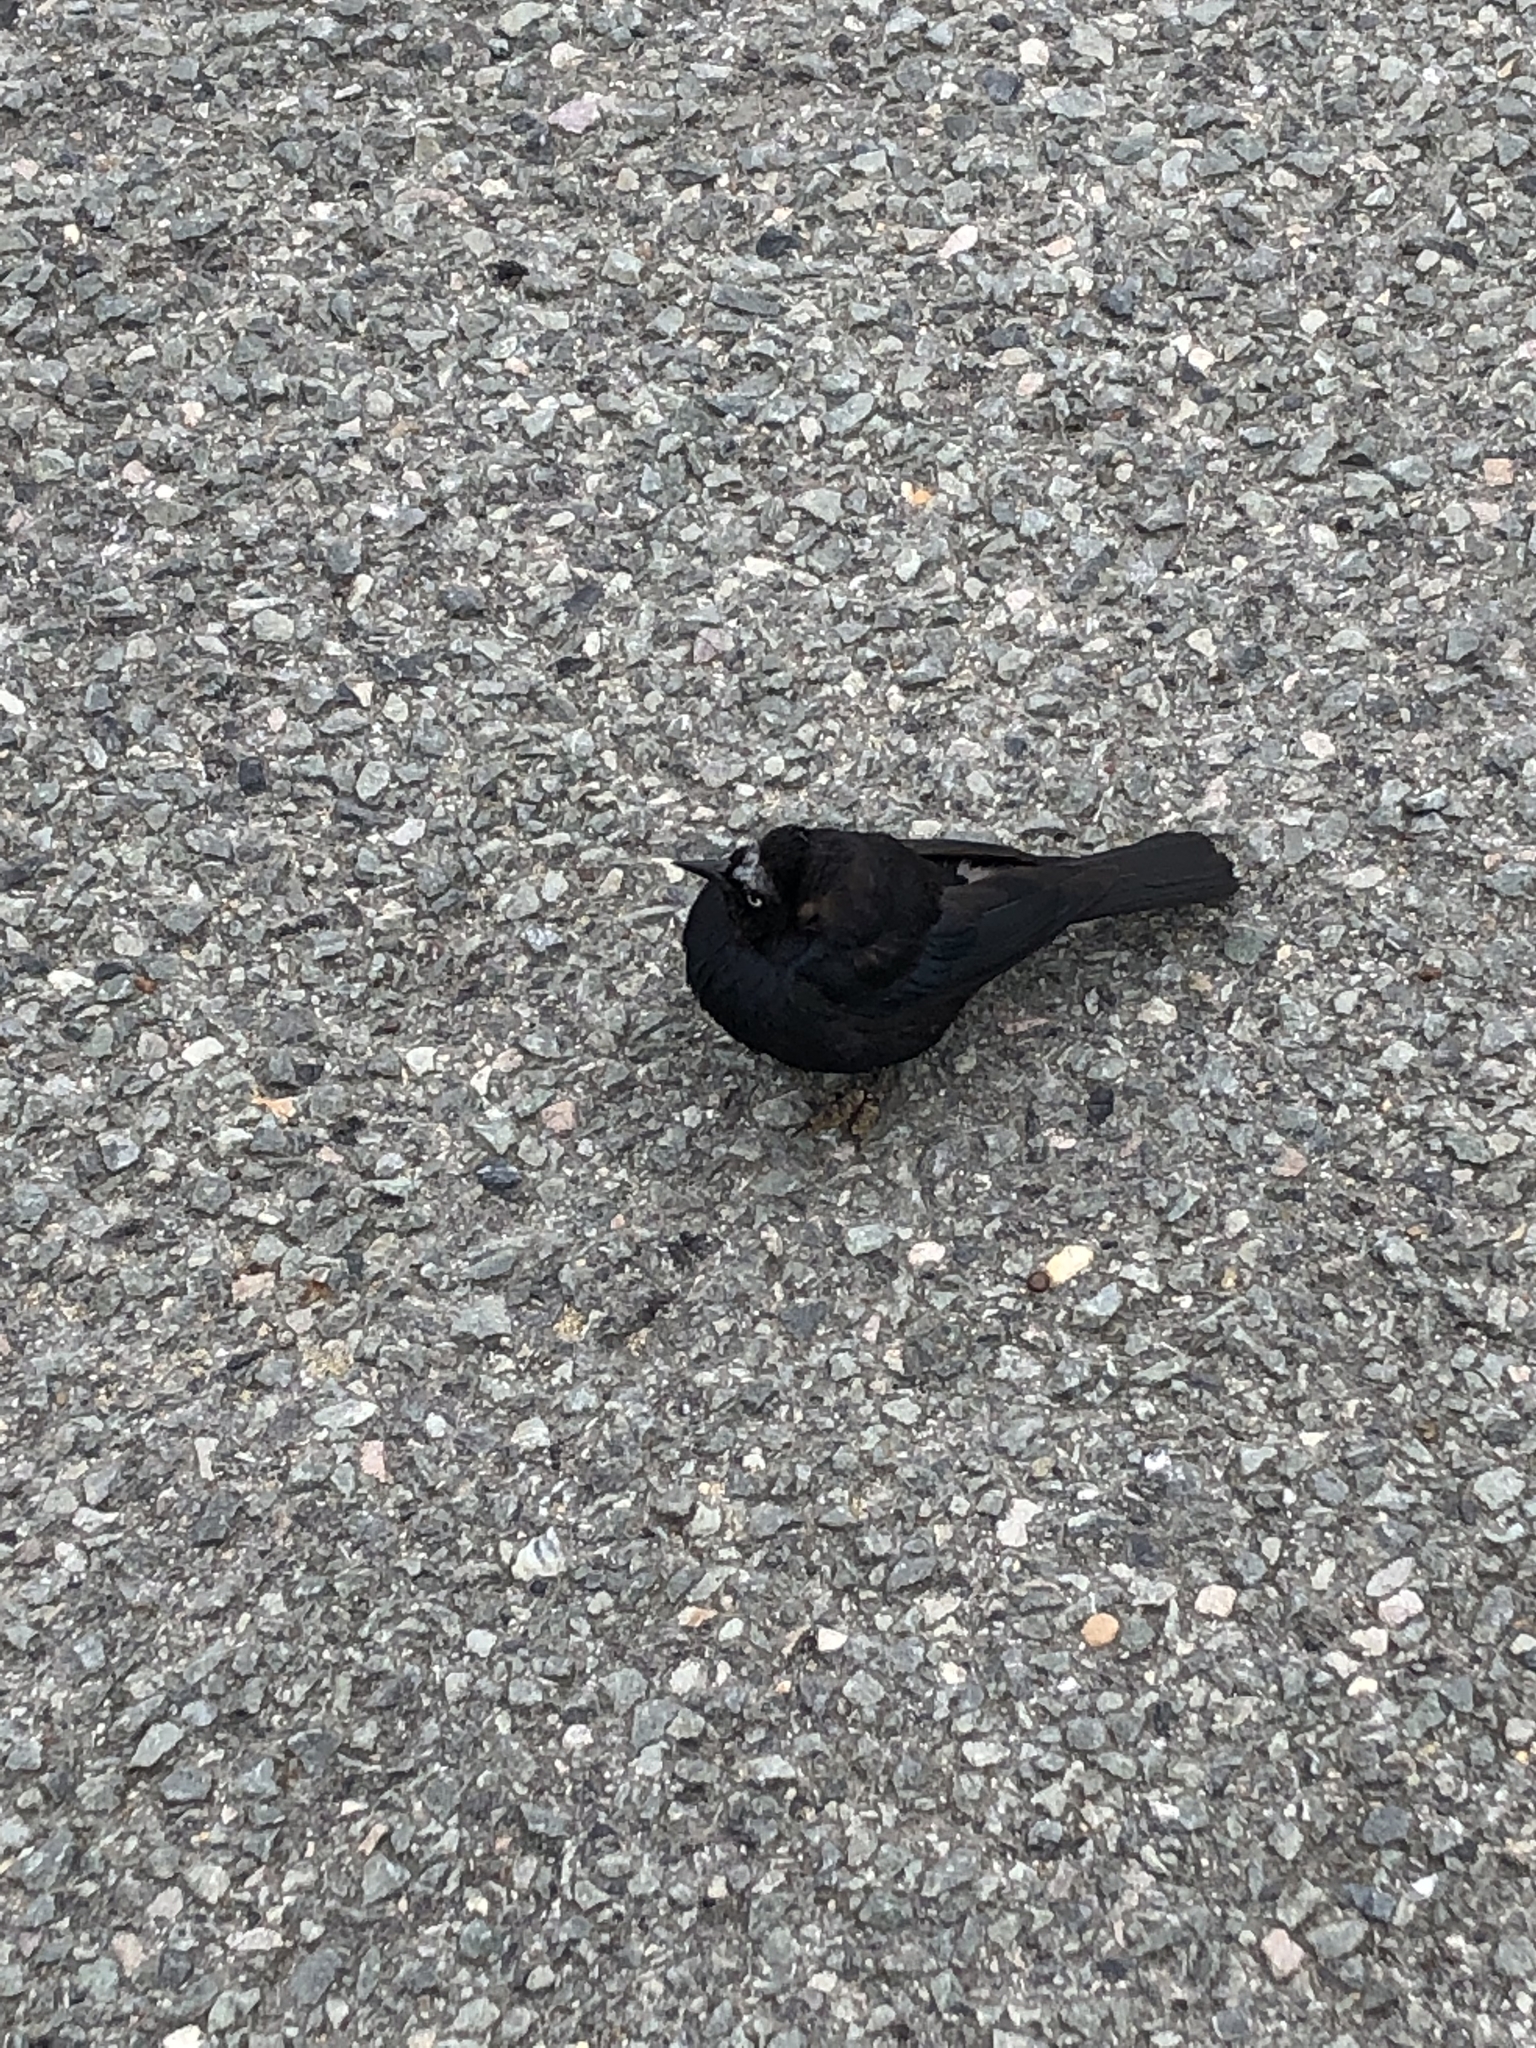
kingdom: Animalia
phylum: Chordata
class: Aves
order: Passeriformes
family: Icteridae
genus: Euphagus
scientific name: Euphagus cyanocephalus
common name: Brewer's blackbird
